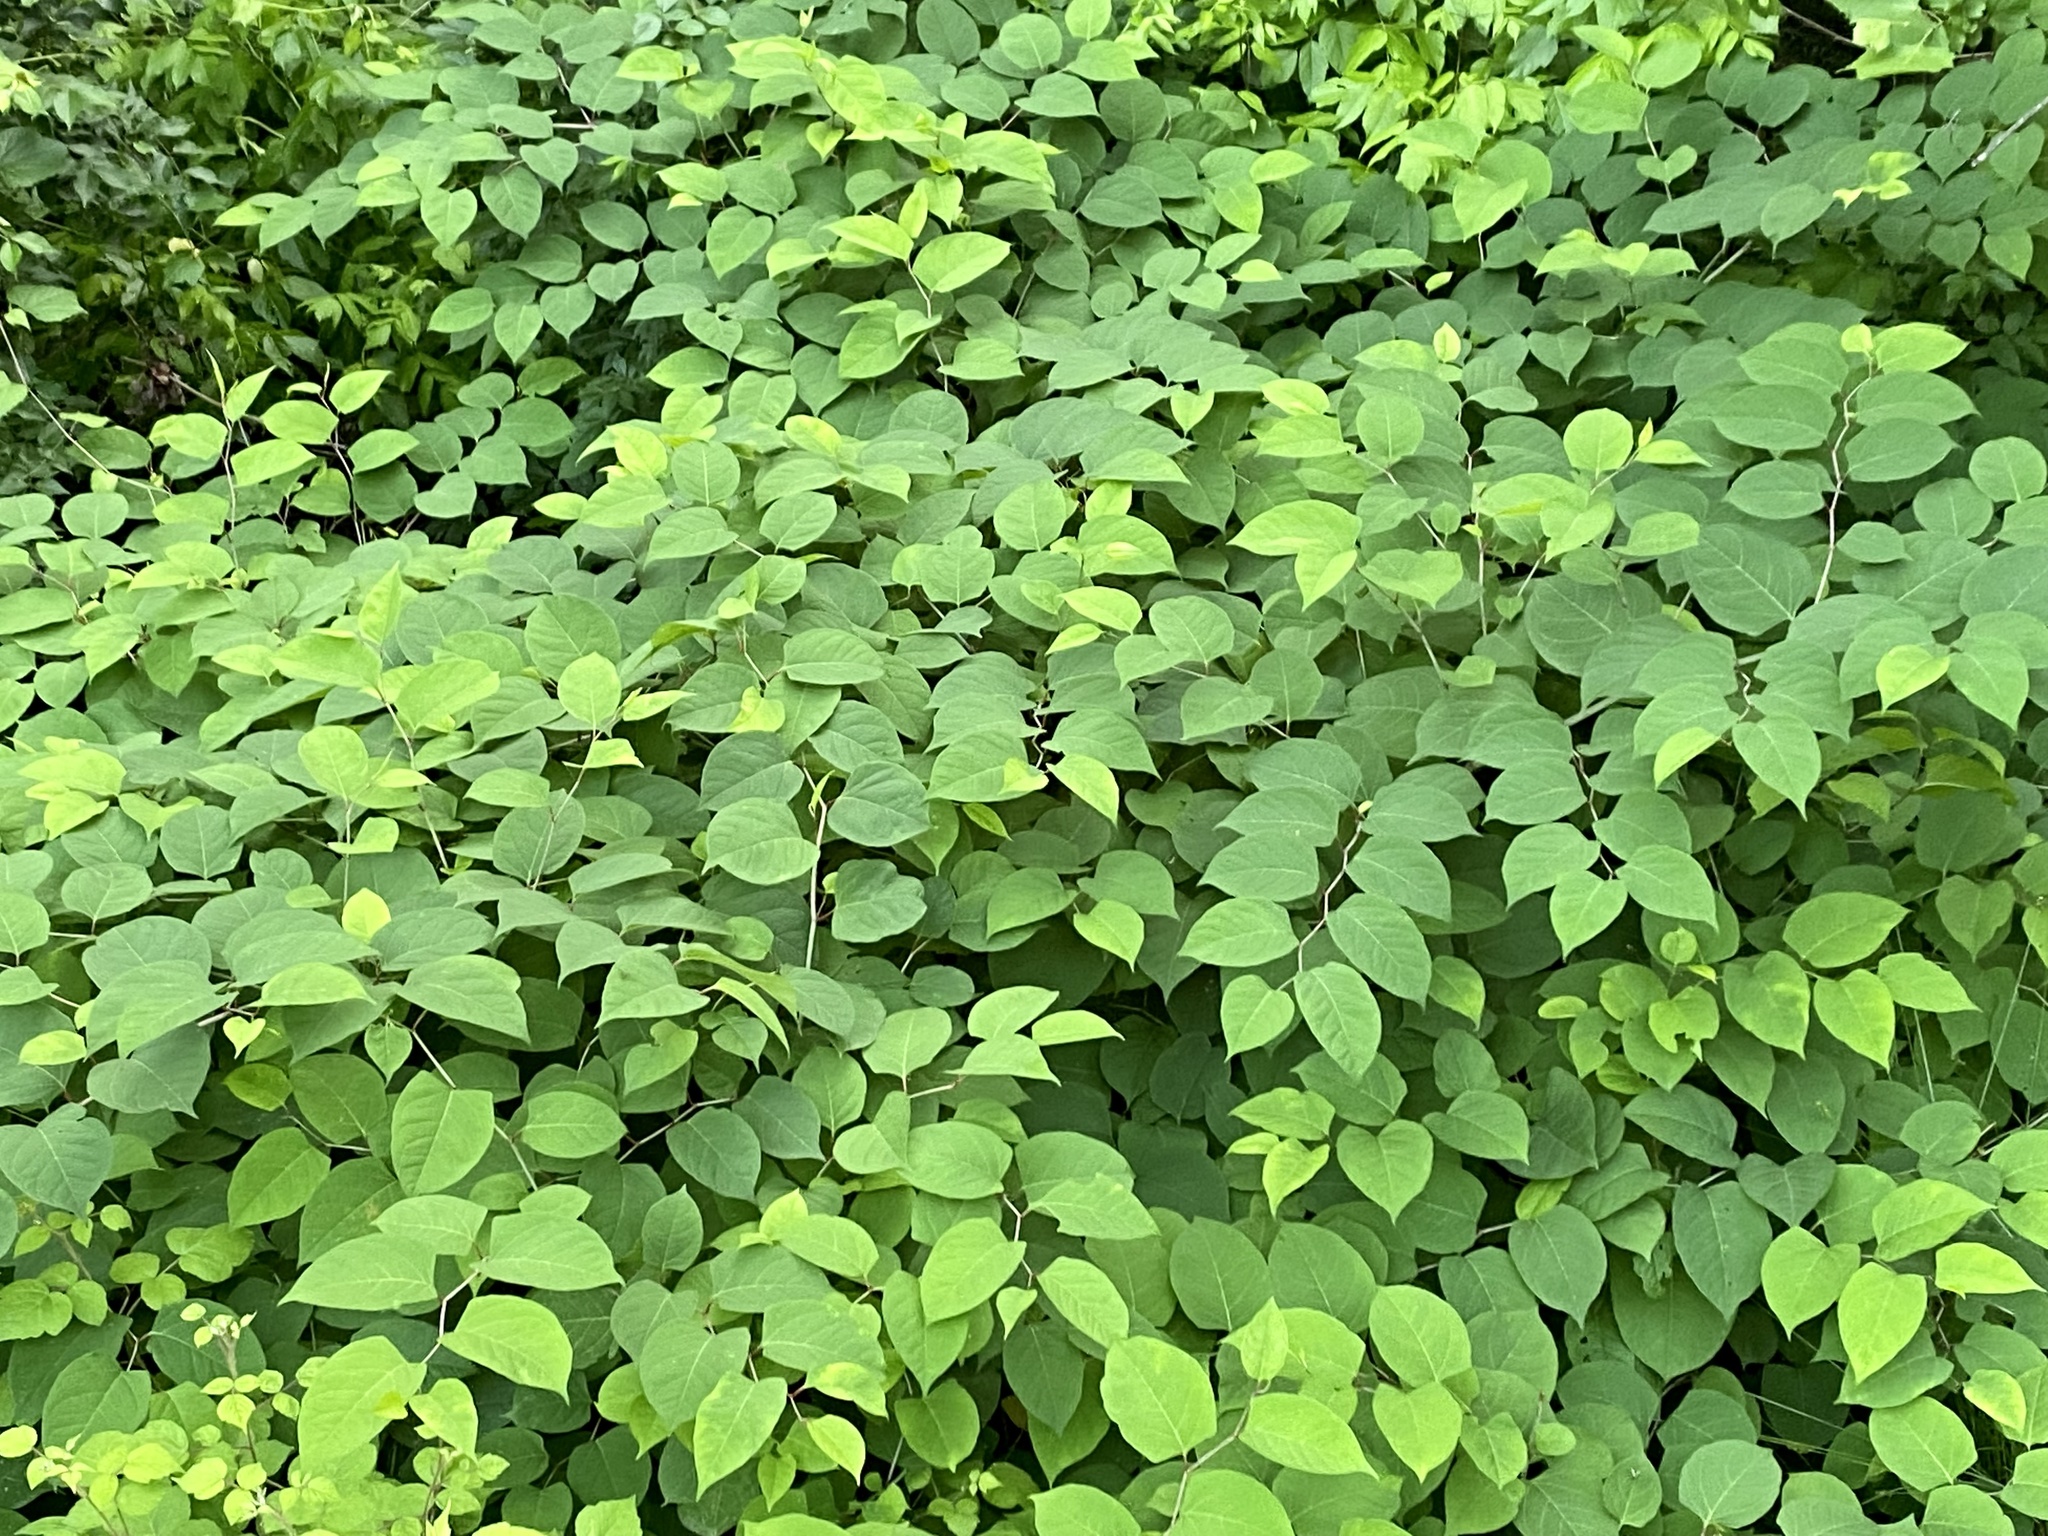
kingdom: Plantae
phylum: Tracheophyta
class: Magnoliopsida
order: Caryophyllales
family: Polygonaceae
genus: Reynoutria
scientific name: Reynoutria japonica
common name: Japanese knotweed
